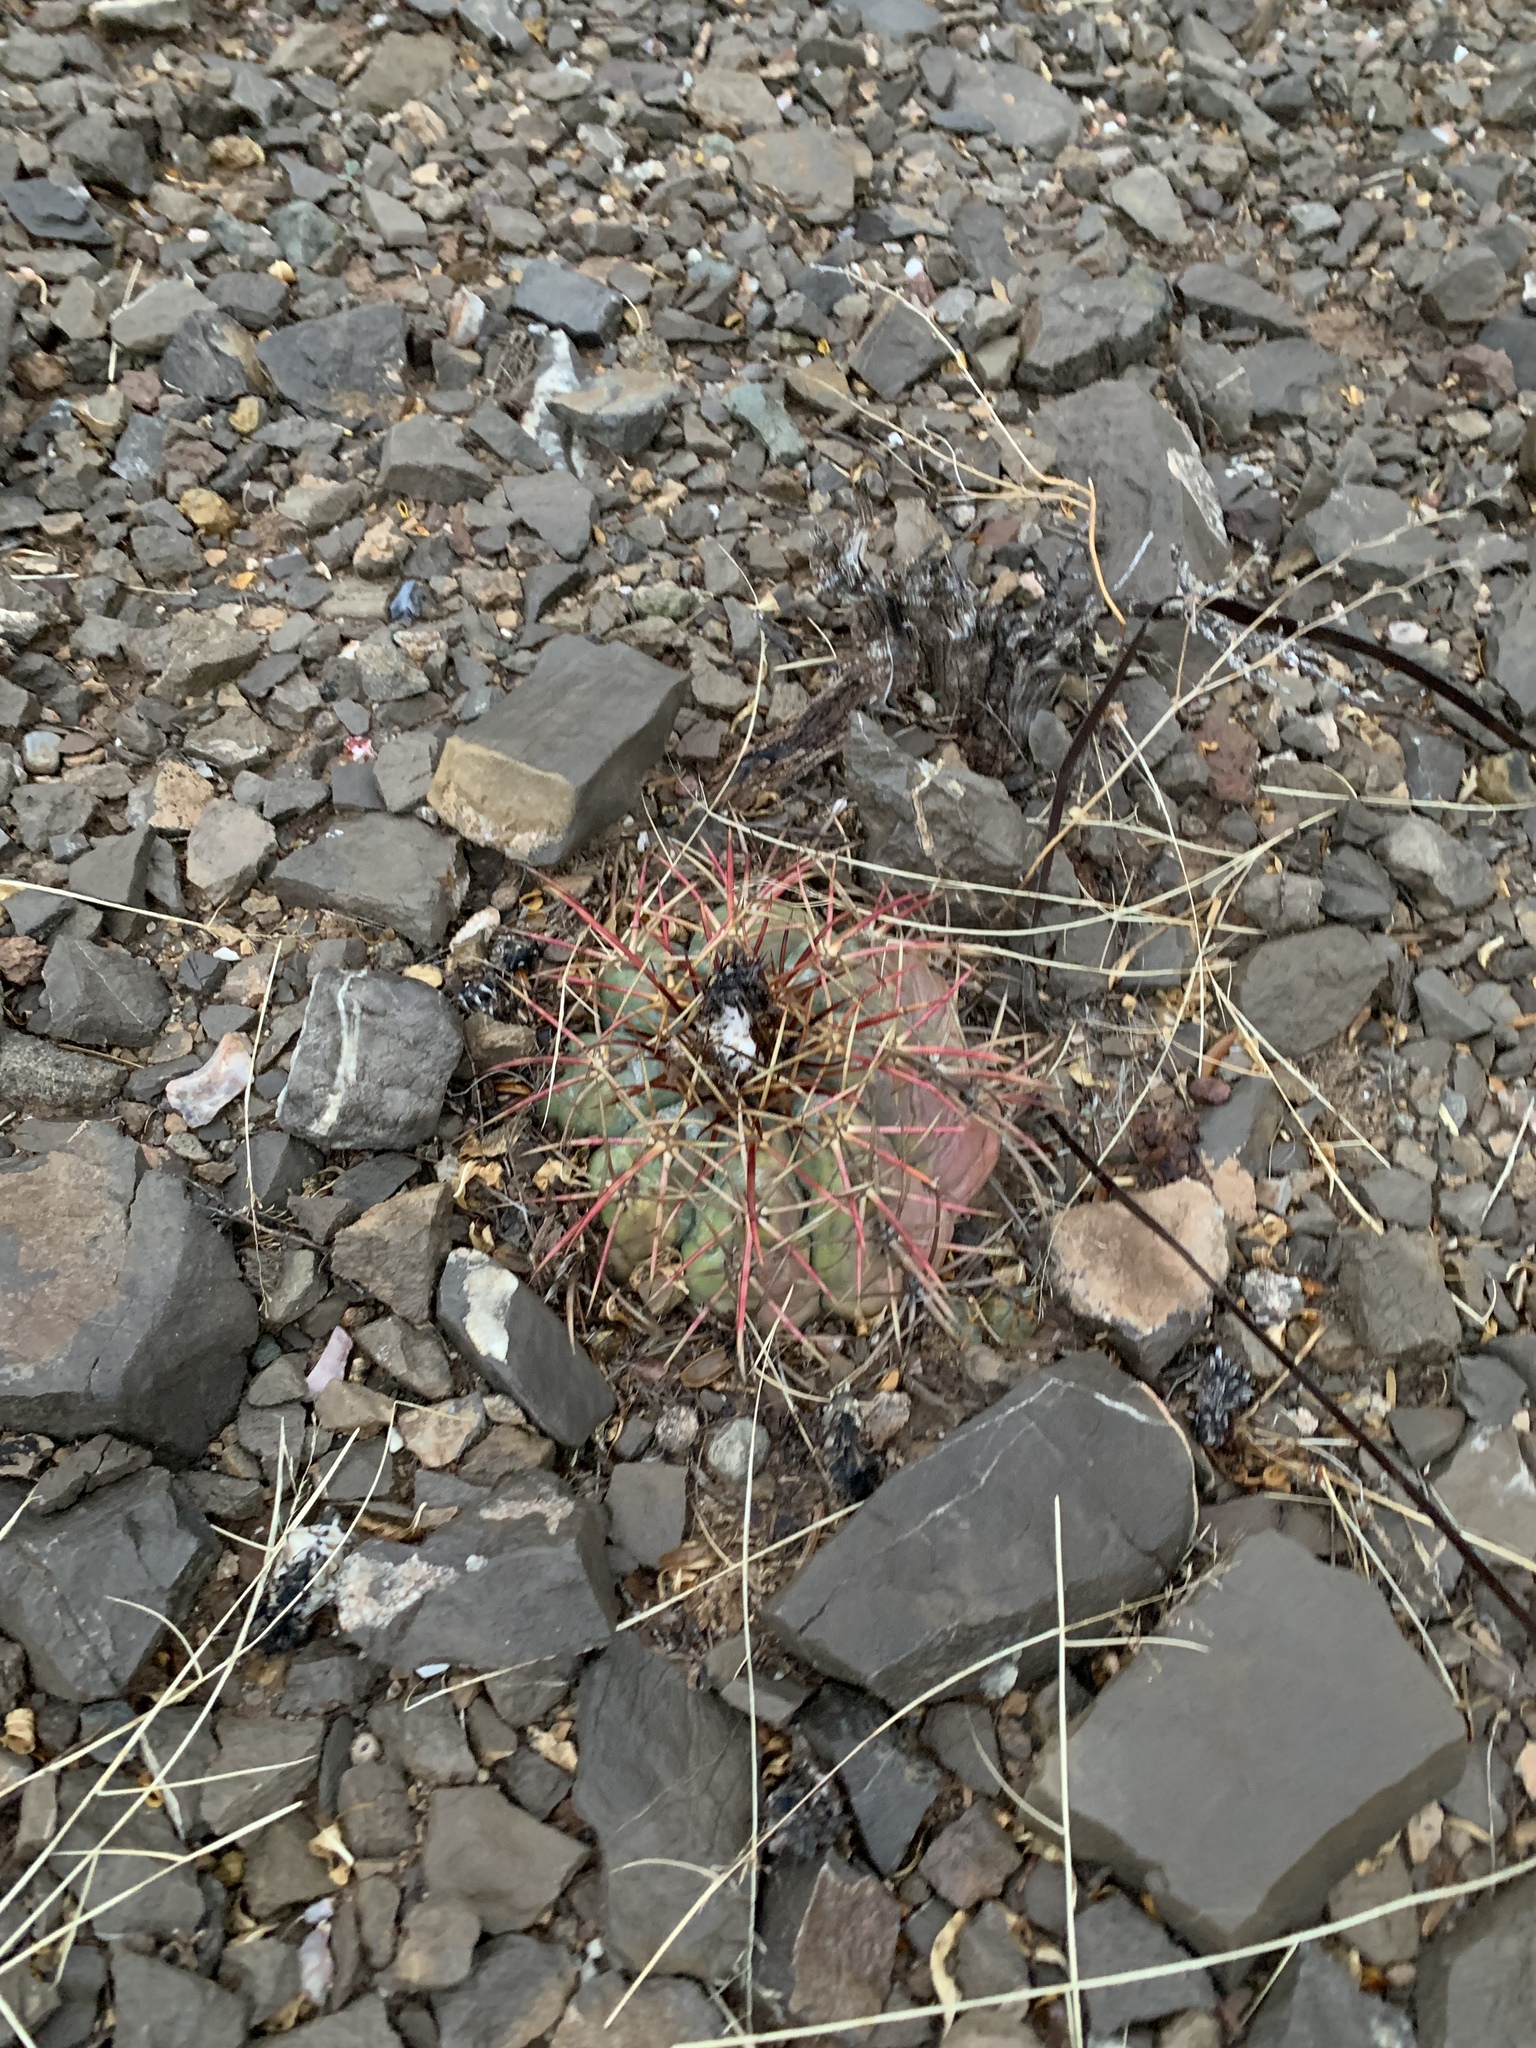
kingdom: Plantae
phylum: Tracheophyta
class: Magnoliopsida
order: Caryophyllales
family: Cactaceae
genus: Echinocactus
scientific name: Echinocactus horizonthalonius
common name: Devilshead
